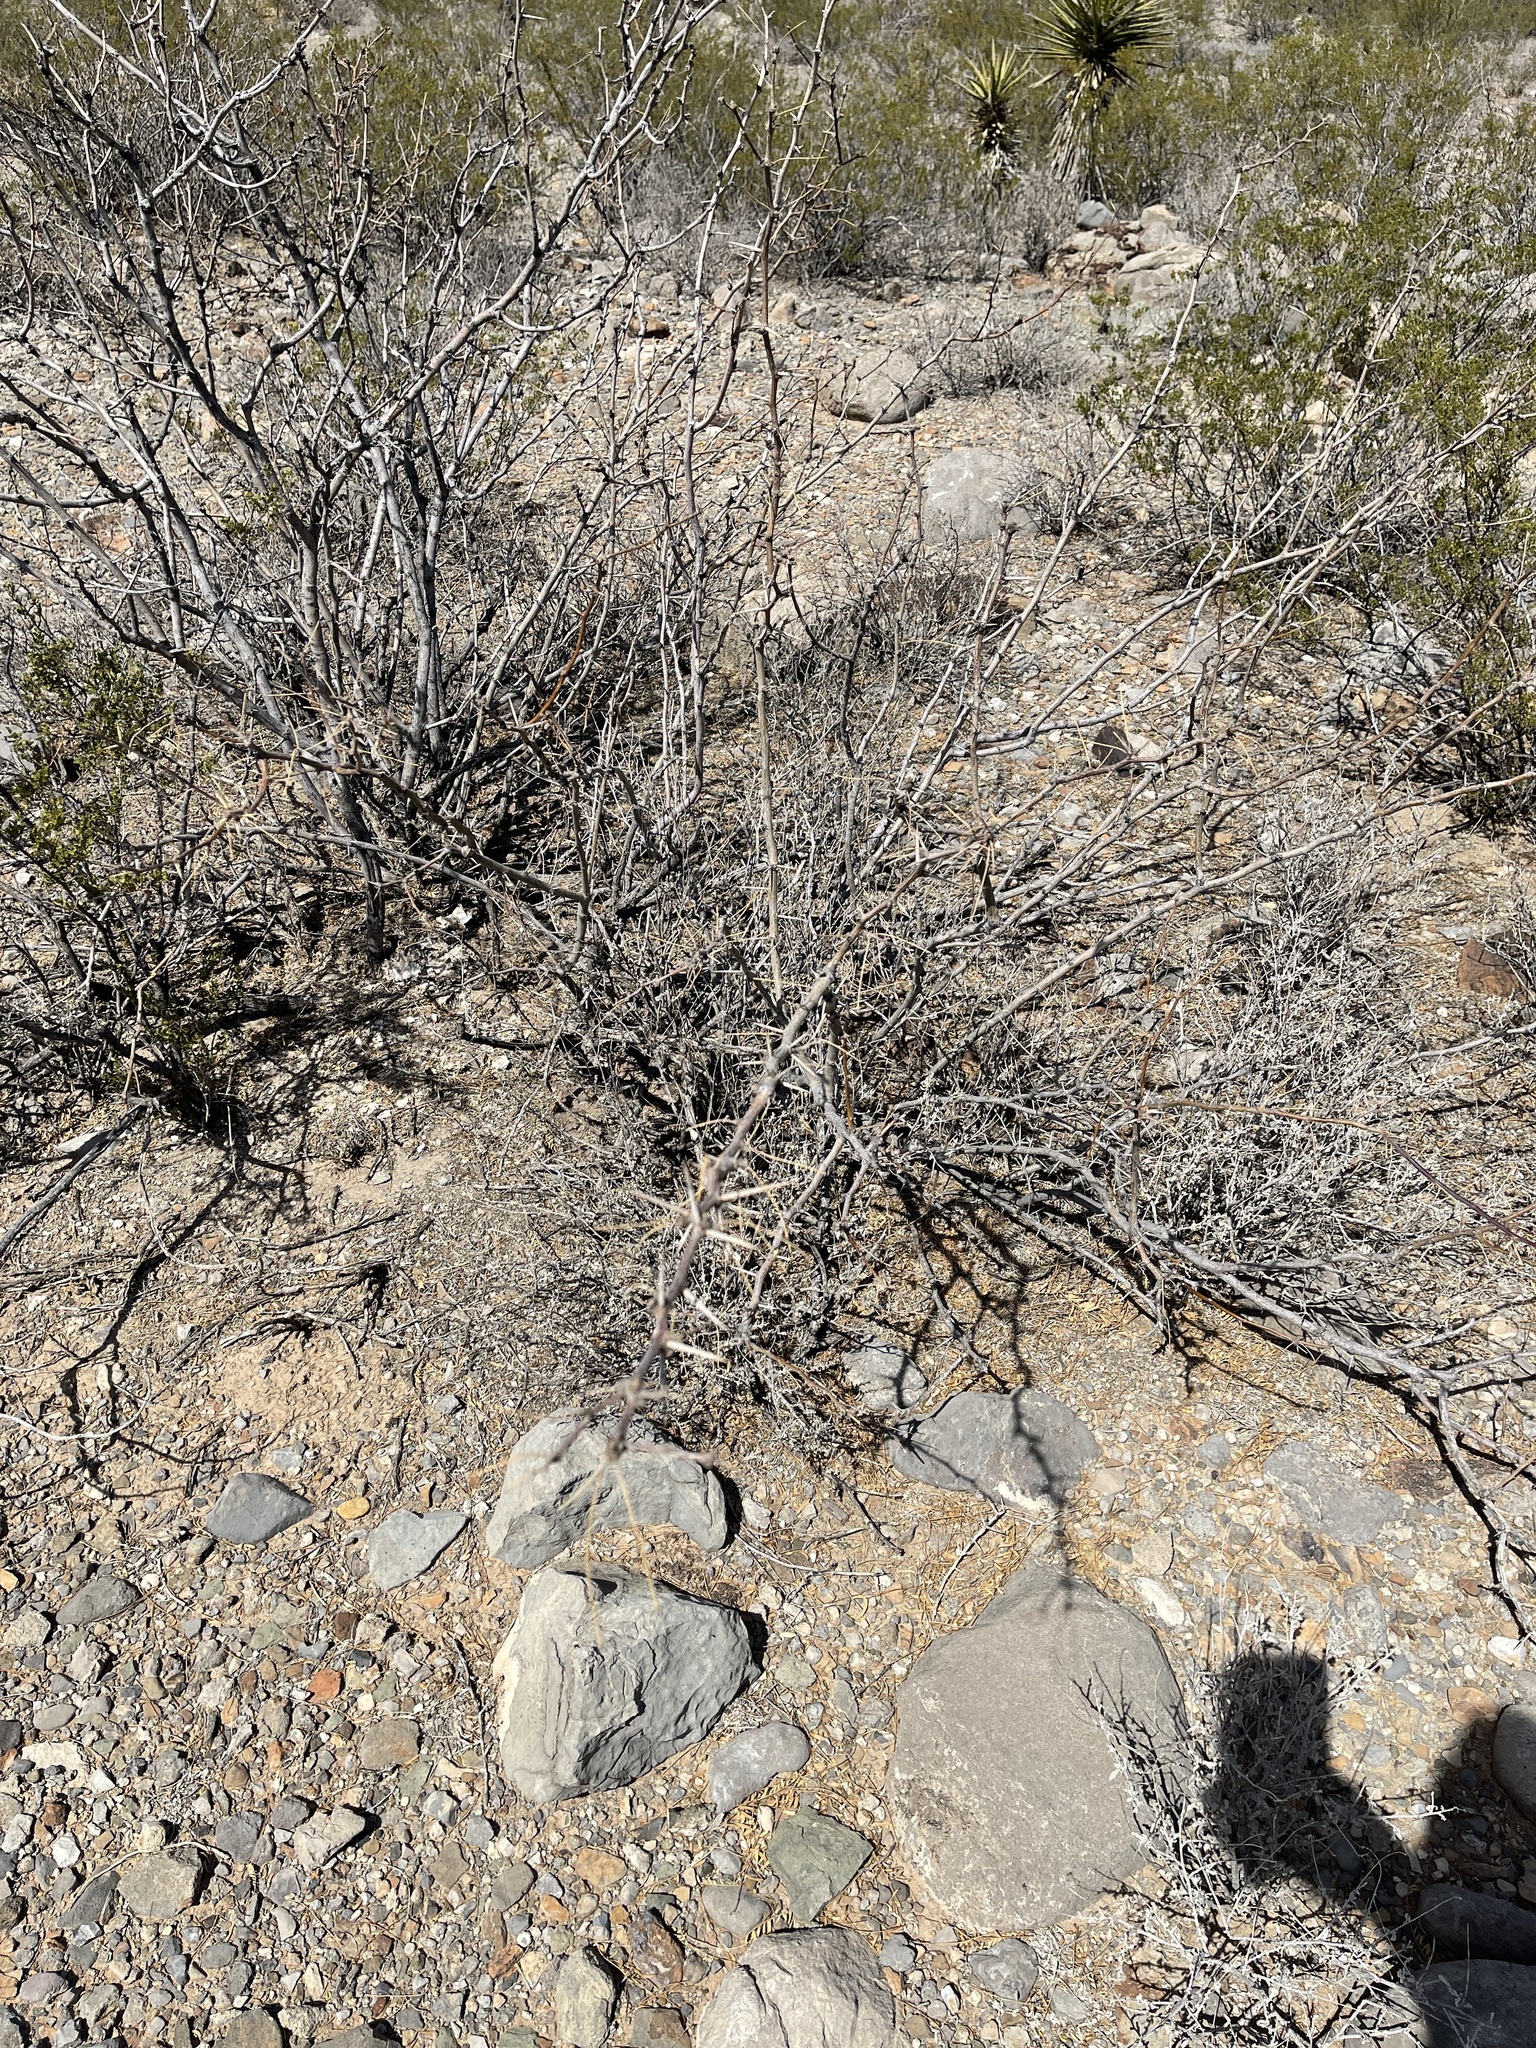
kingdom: Plantae
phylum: Tracheophyta
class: Magnoliopsida
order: Fabales
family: Fabaceae
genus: Prosopis
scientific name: Prosopis glandulosa
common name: Honey mesquite
